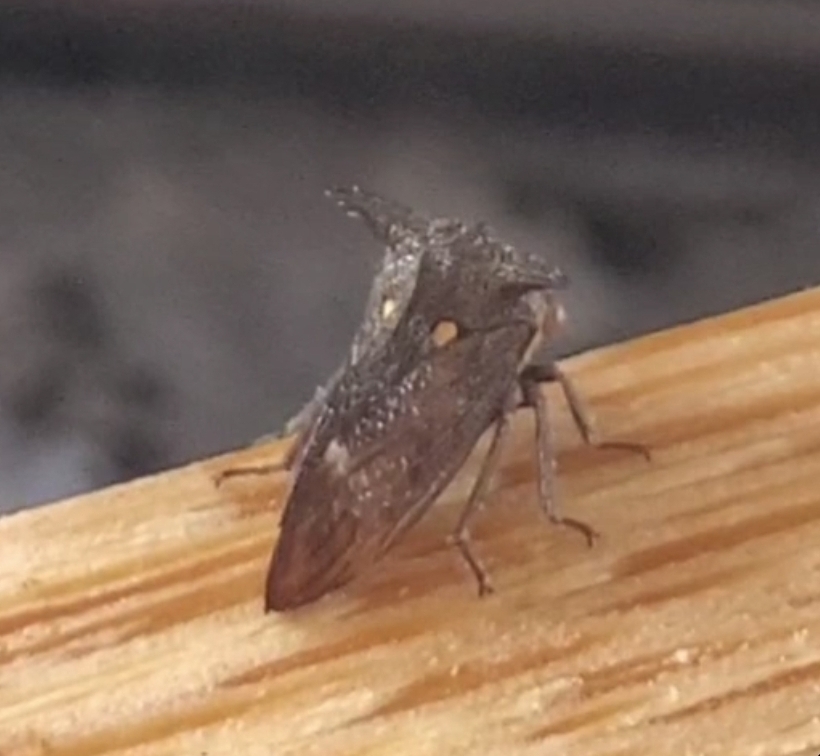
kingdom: Animalia
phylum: Arthropoda
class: Insecta
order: Hemiptera
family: Membracidae
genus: Acanthuchus
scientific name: Acanthuchus trispinifer
